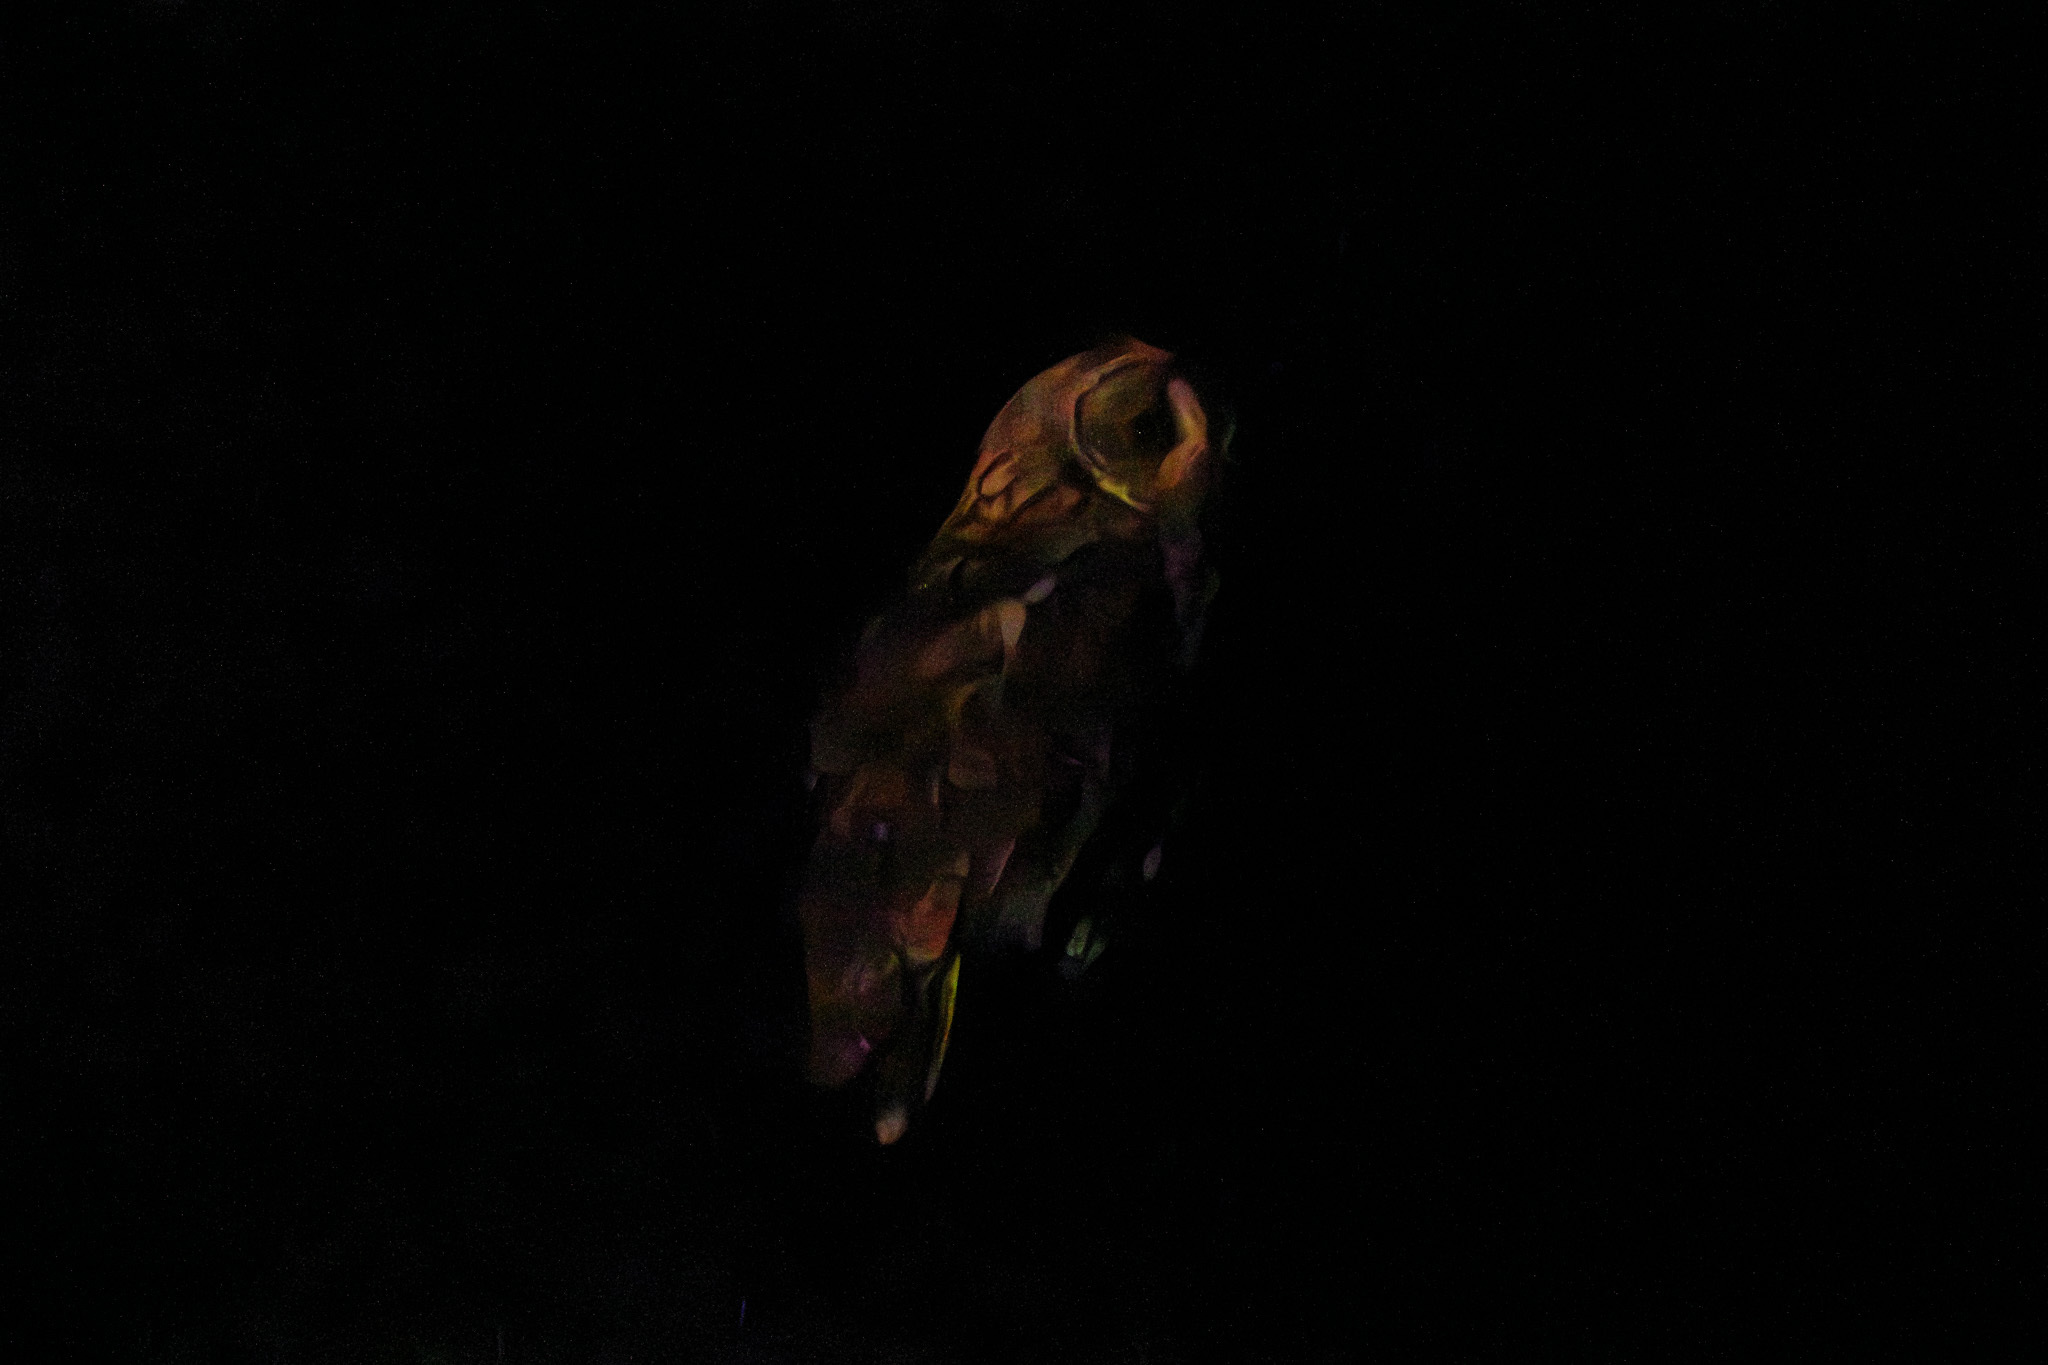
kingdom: Animalia
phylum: Chordata
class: Aves
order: Strigiformes
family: Strigidae
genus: Asio
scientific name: Asio otus
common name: Long-eared owl
